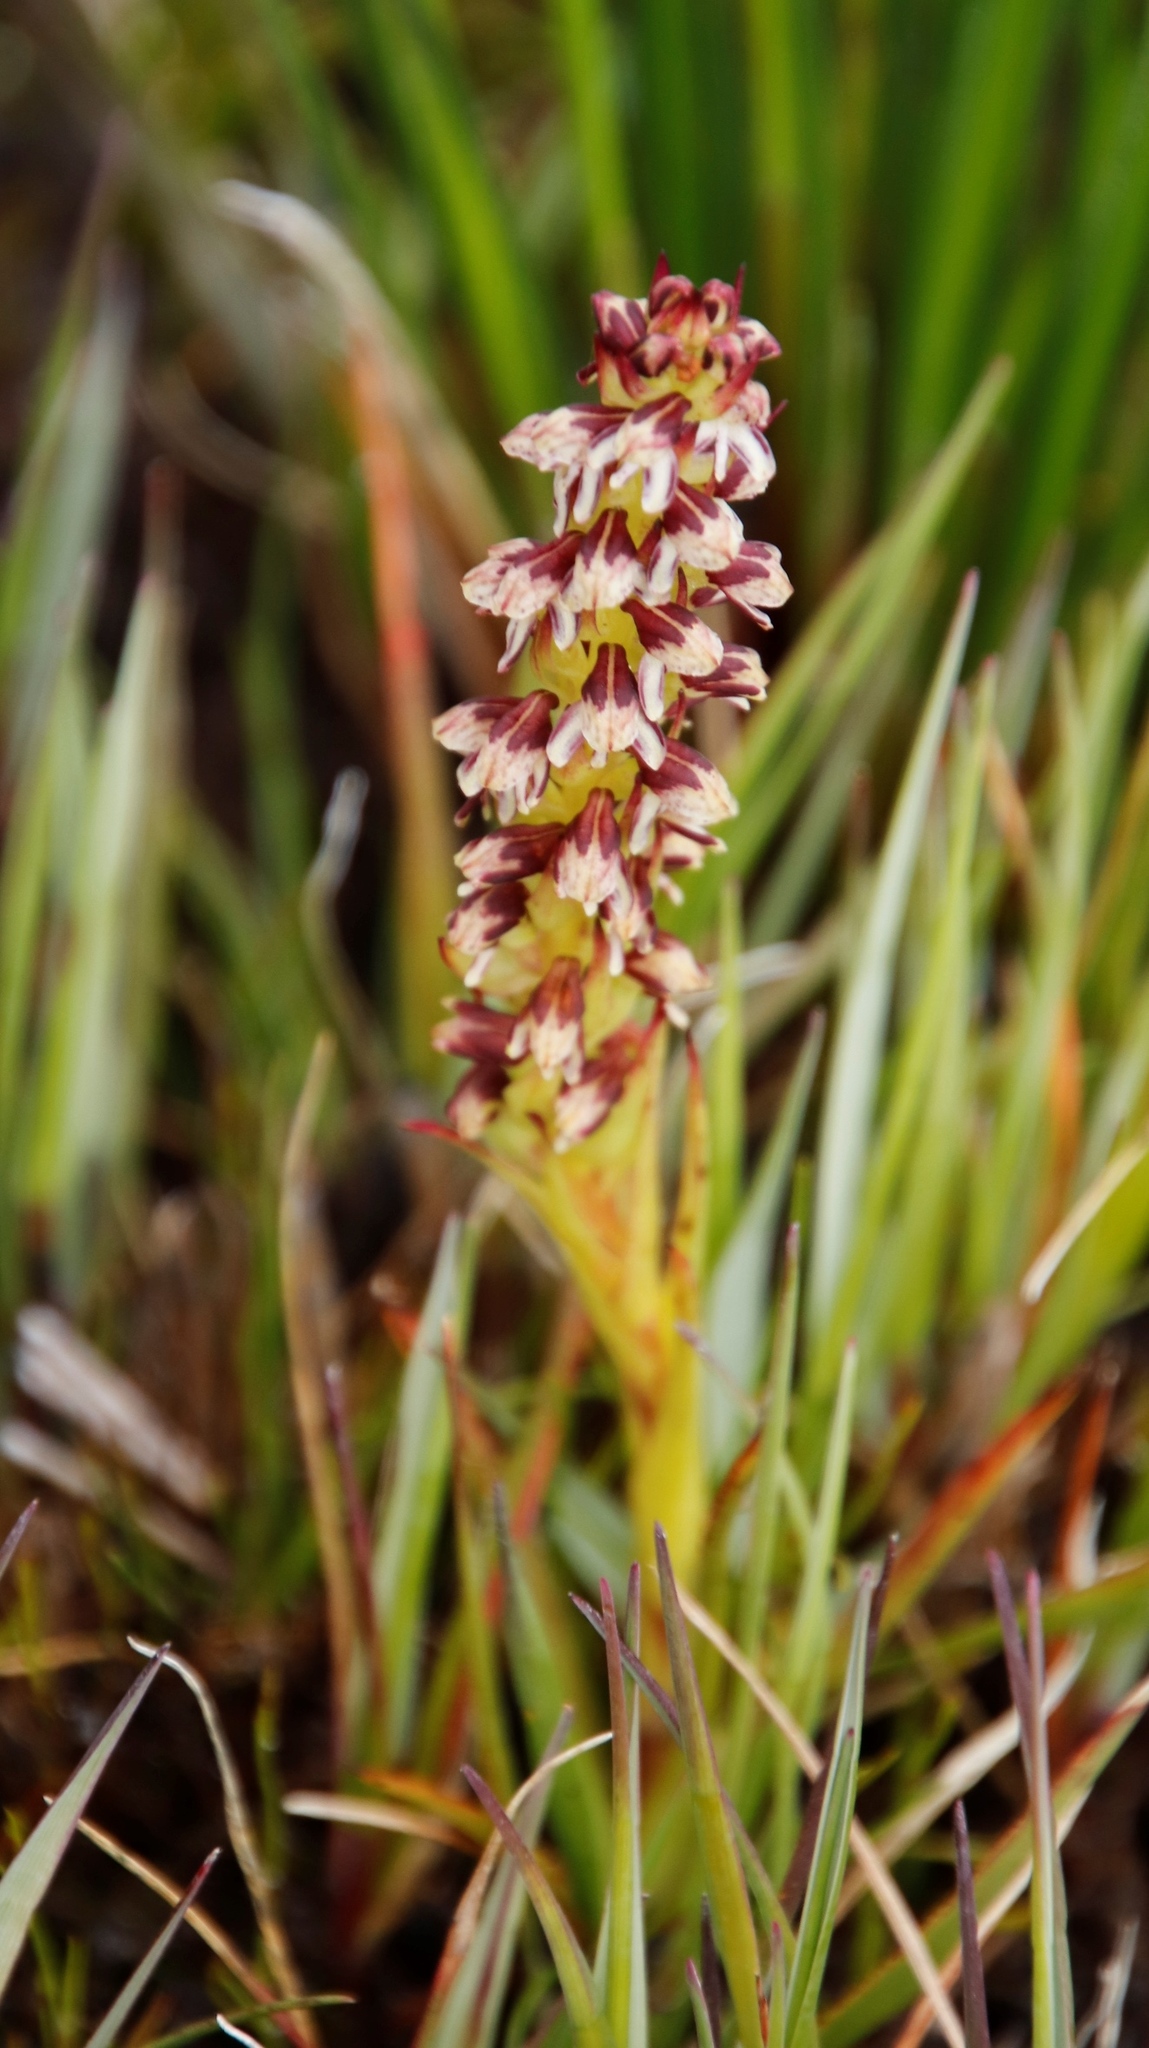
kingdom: Plantae
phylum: Tracheophyta
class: Liliopsida
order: Asparagales
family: Orchidaceae
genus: Disa
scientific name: Disa obtusa
